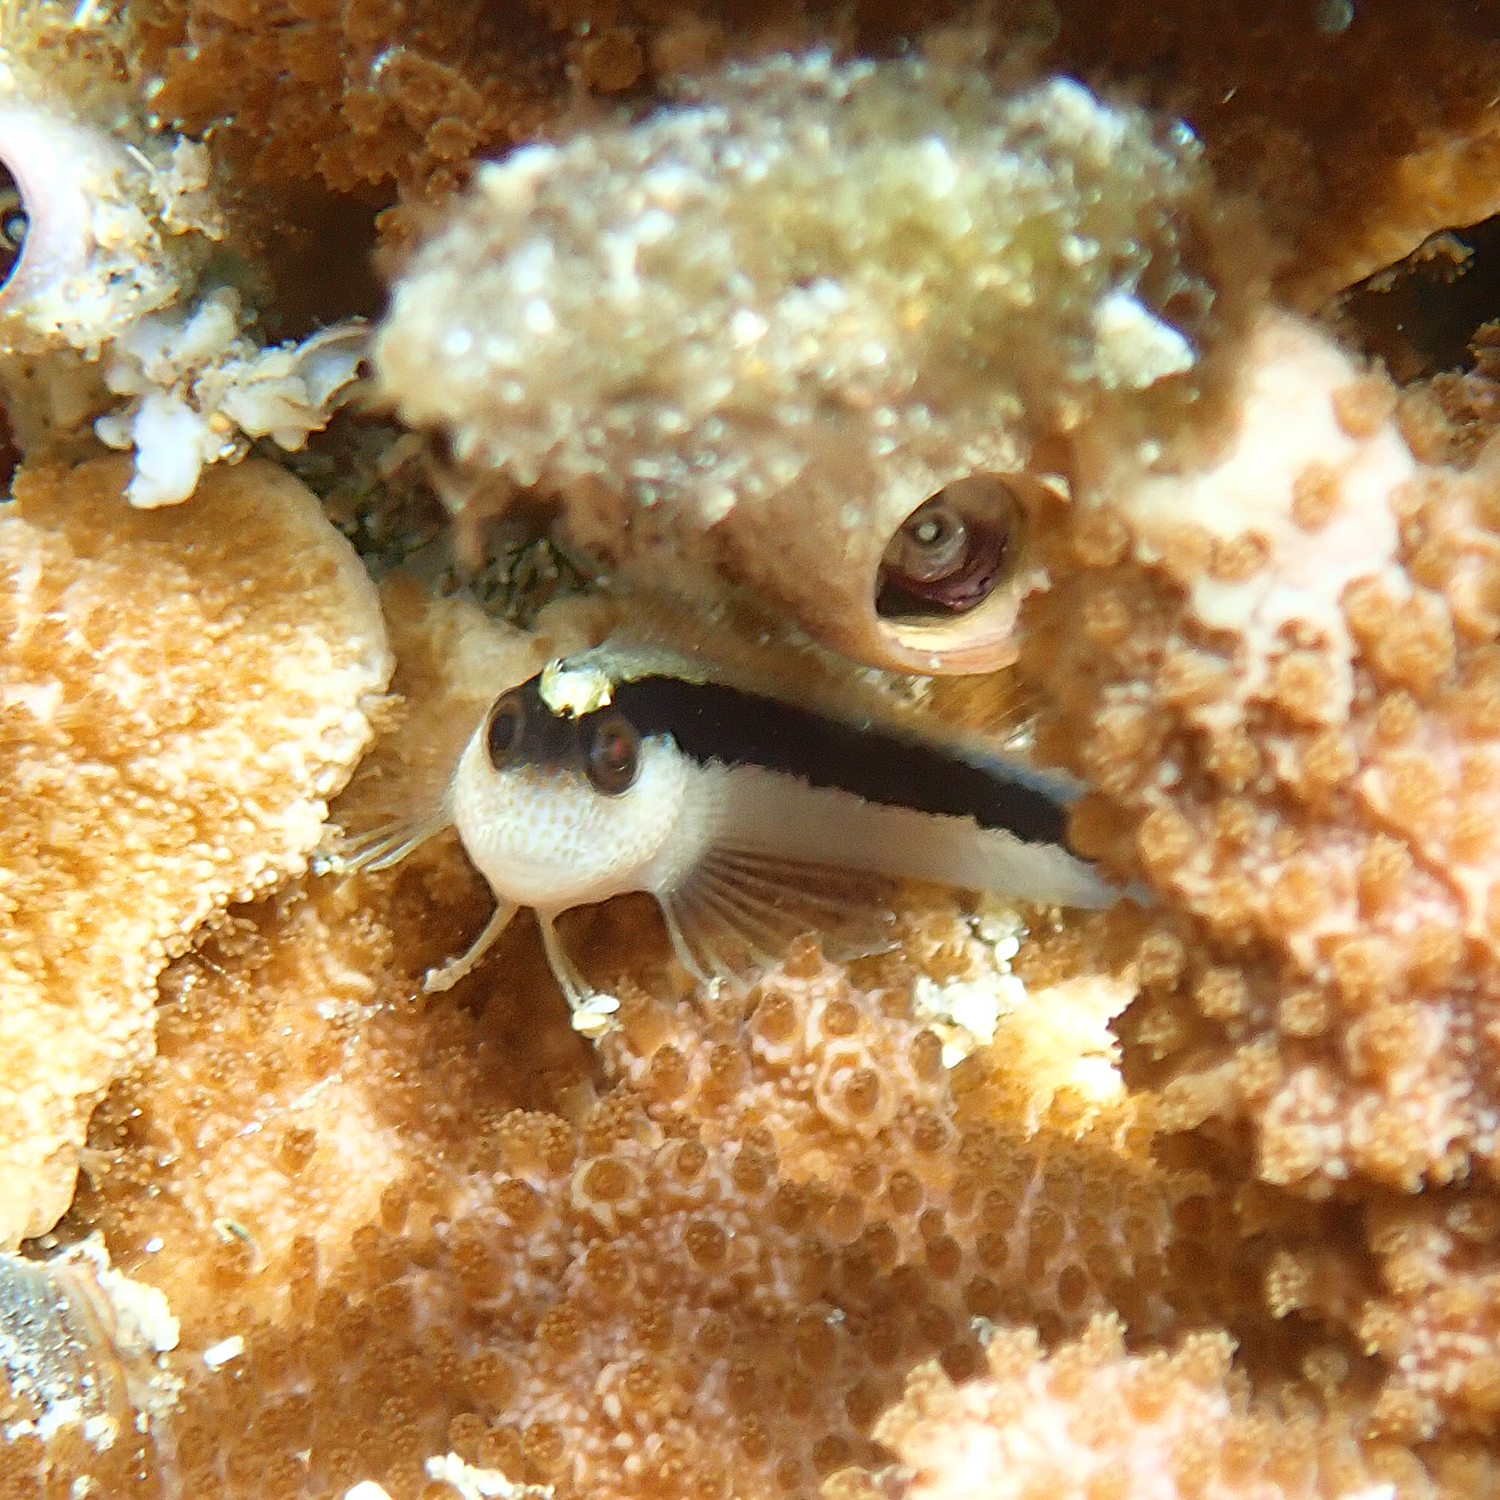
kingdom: Animalia
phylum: Chordata
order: Perciformes
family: Blenniidae
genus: Parablennius
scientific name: Parablennius serratolineatus
